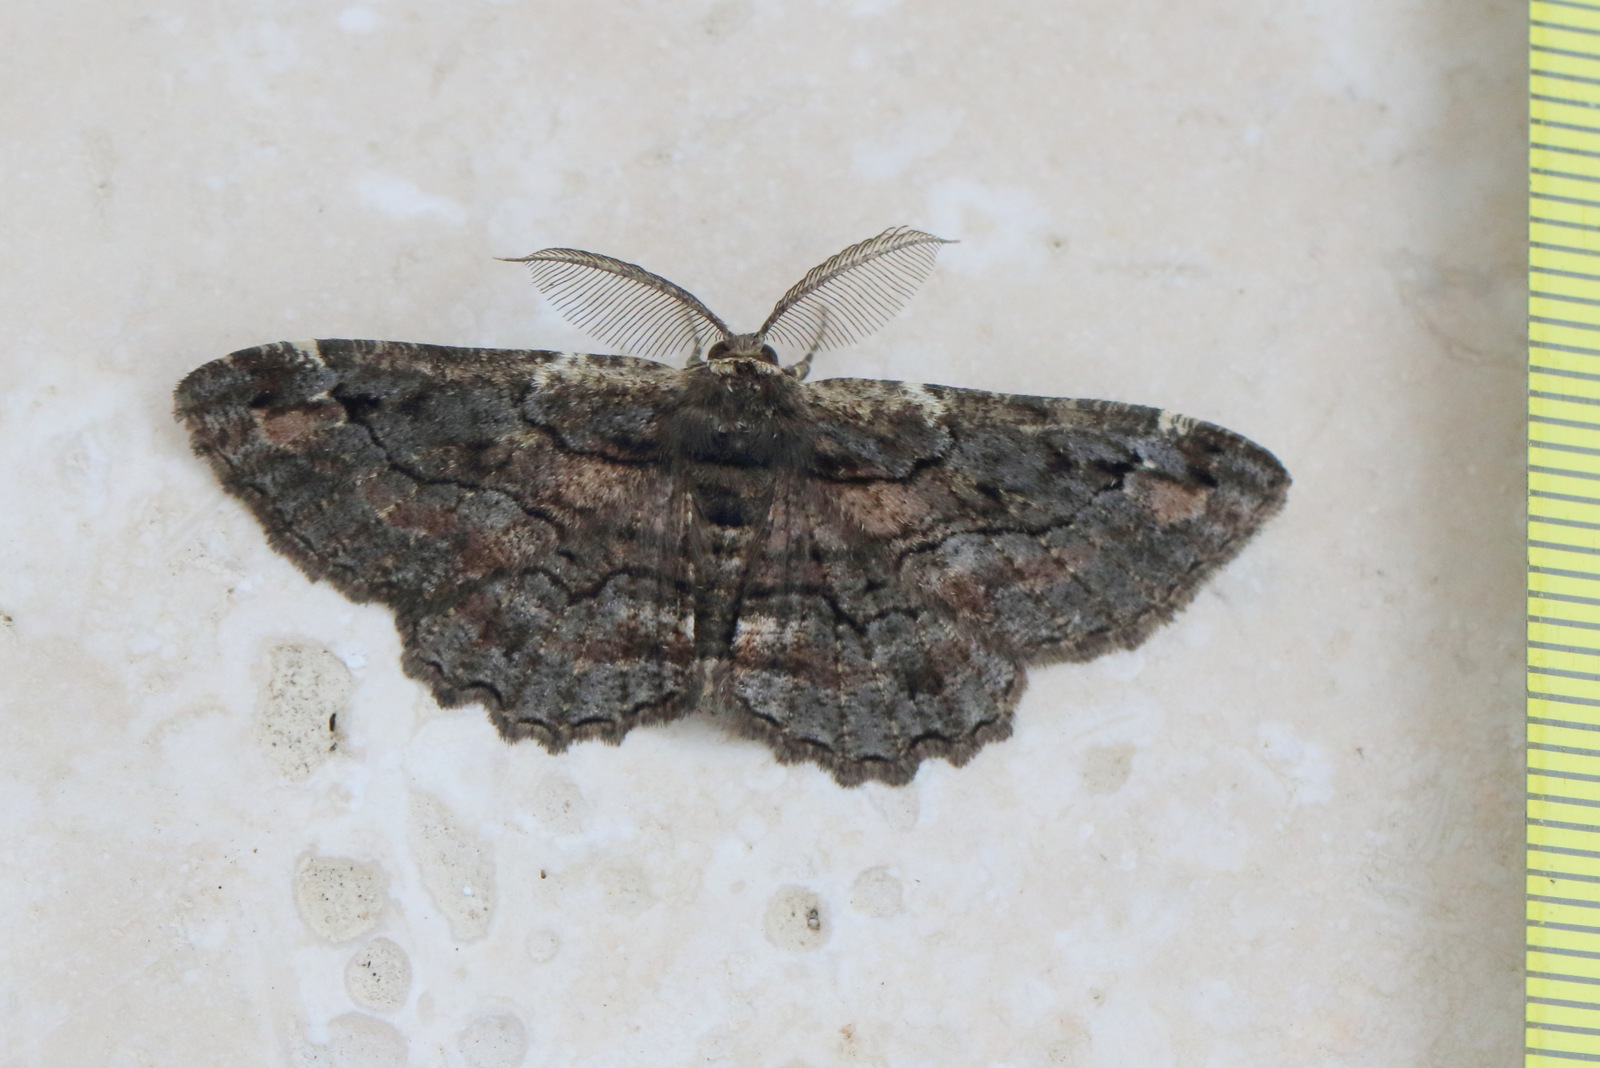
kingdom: Animalia
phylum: Arthropoda
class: Insecta
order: Lepidoptera
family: Geometridae
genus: Pholodes
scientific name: Pholodes sinistraria
